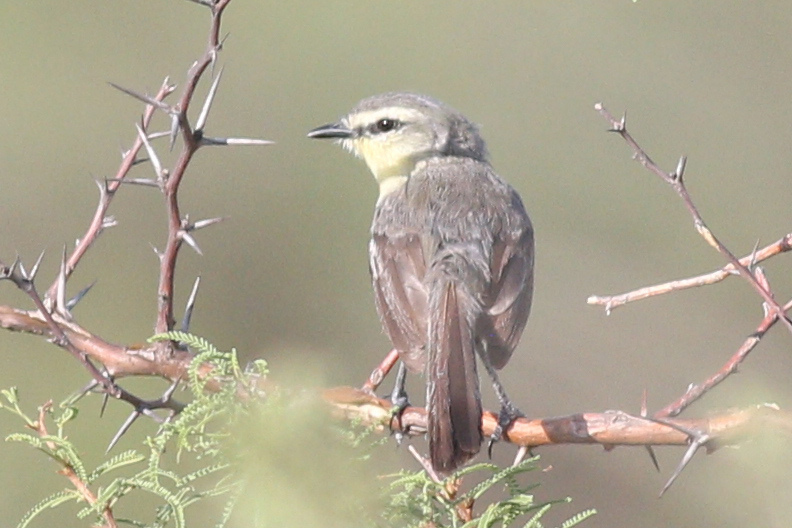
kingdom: Animalia
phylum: Chordata
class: Aves
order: Passeriformes
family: Tyrannidae
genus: Stigmatura
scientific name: Stigmatura budytoides
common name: Greater wagtail-tyrant
